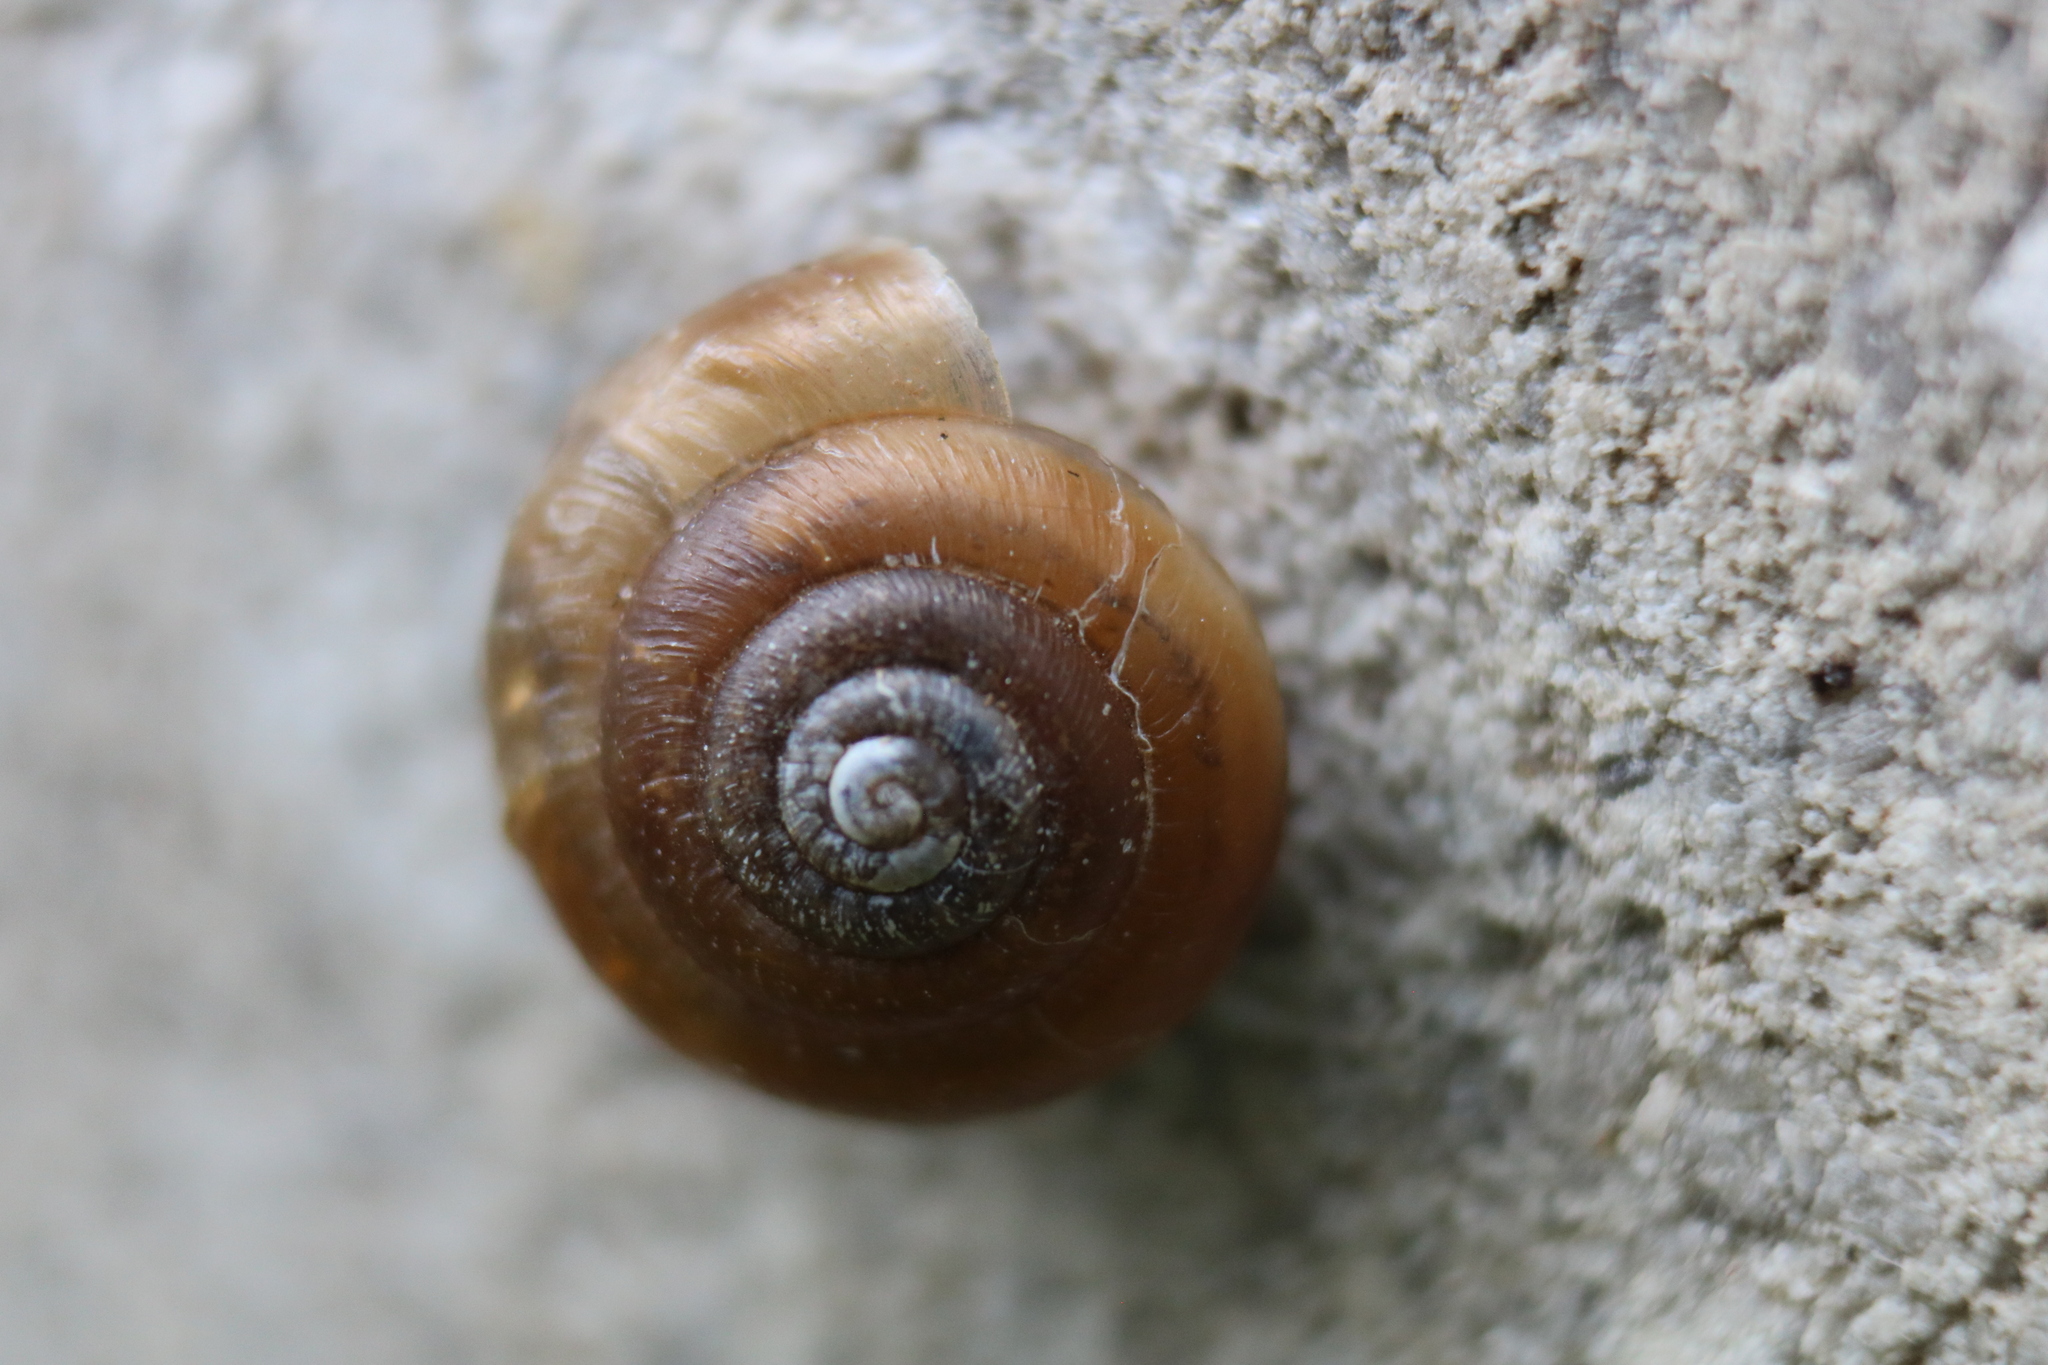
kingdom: Animalia
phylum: Mollusca
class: Gastropoda
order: Stylommatophora
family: Hygromiidae
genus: Trochulus
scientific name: Trochulus hispidus
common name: Hairy snail
